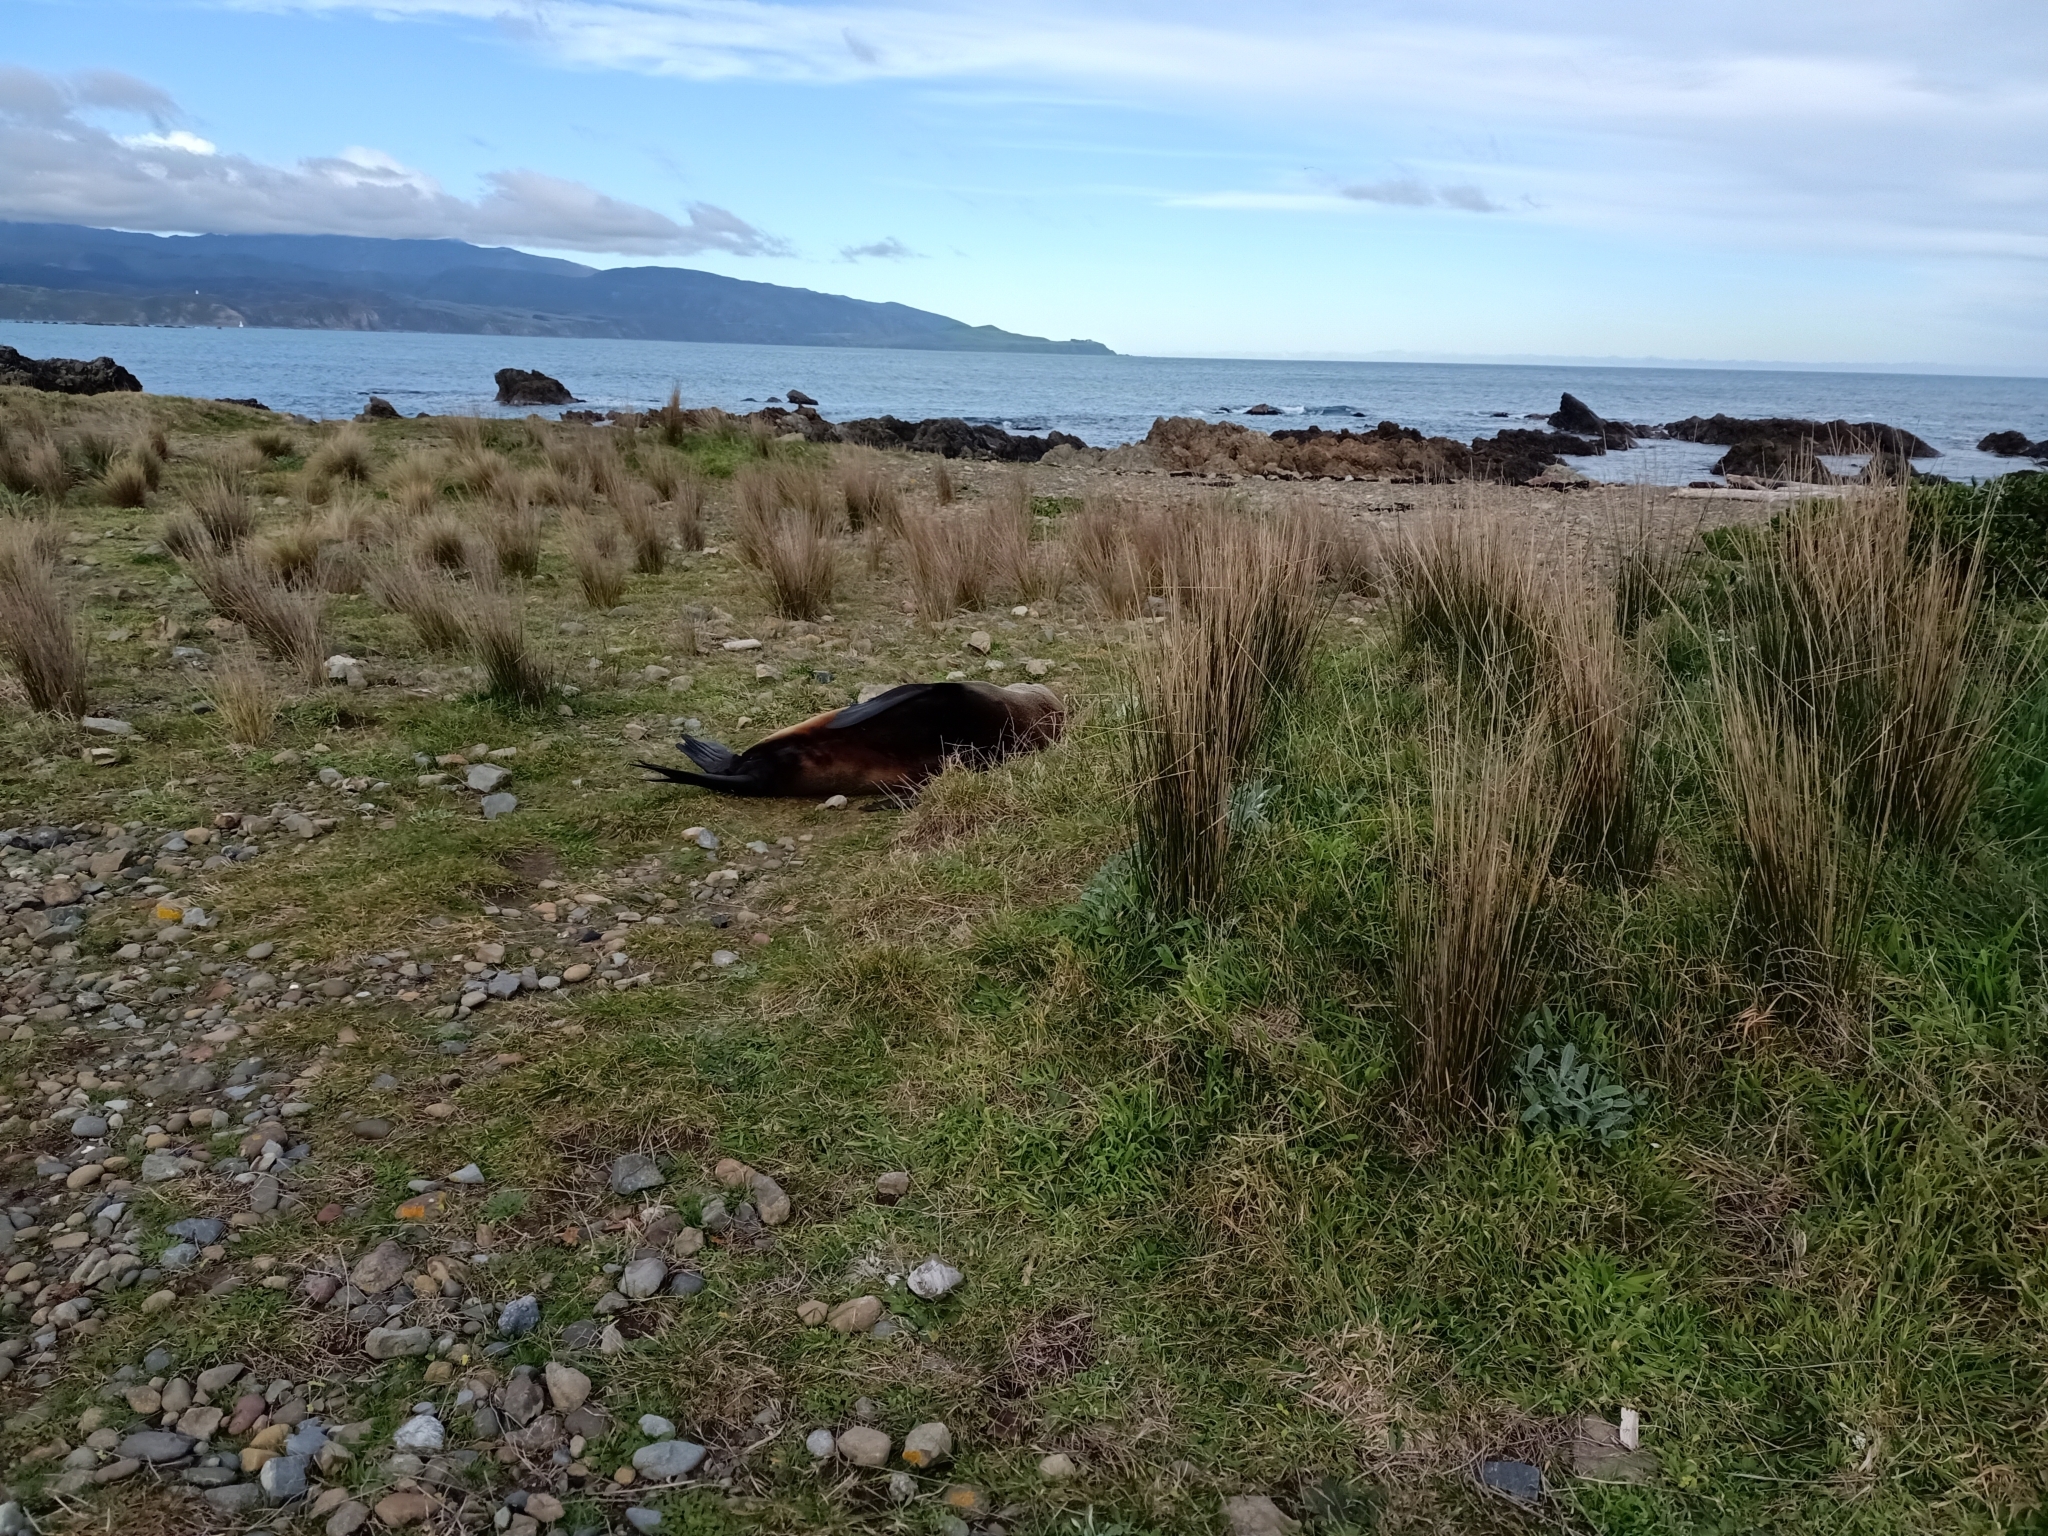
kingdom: Animalia
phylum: Chordata
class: Mammalia
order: Carnivora
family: Otariidae
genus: Arctocephalus
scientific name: Arctocephalus forsteri
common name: New zealand fur seal
